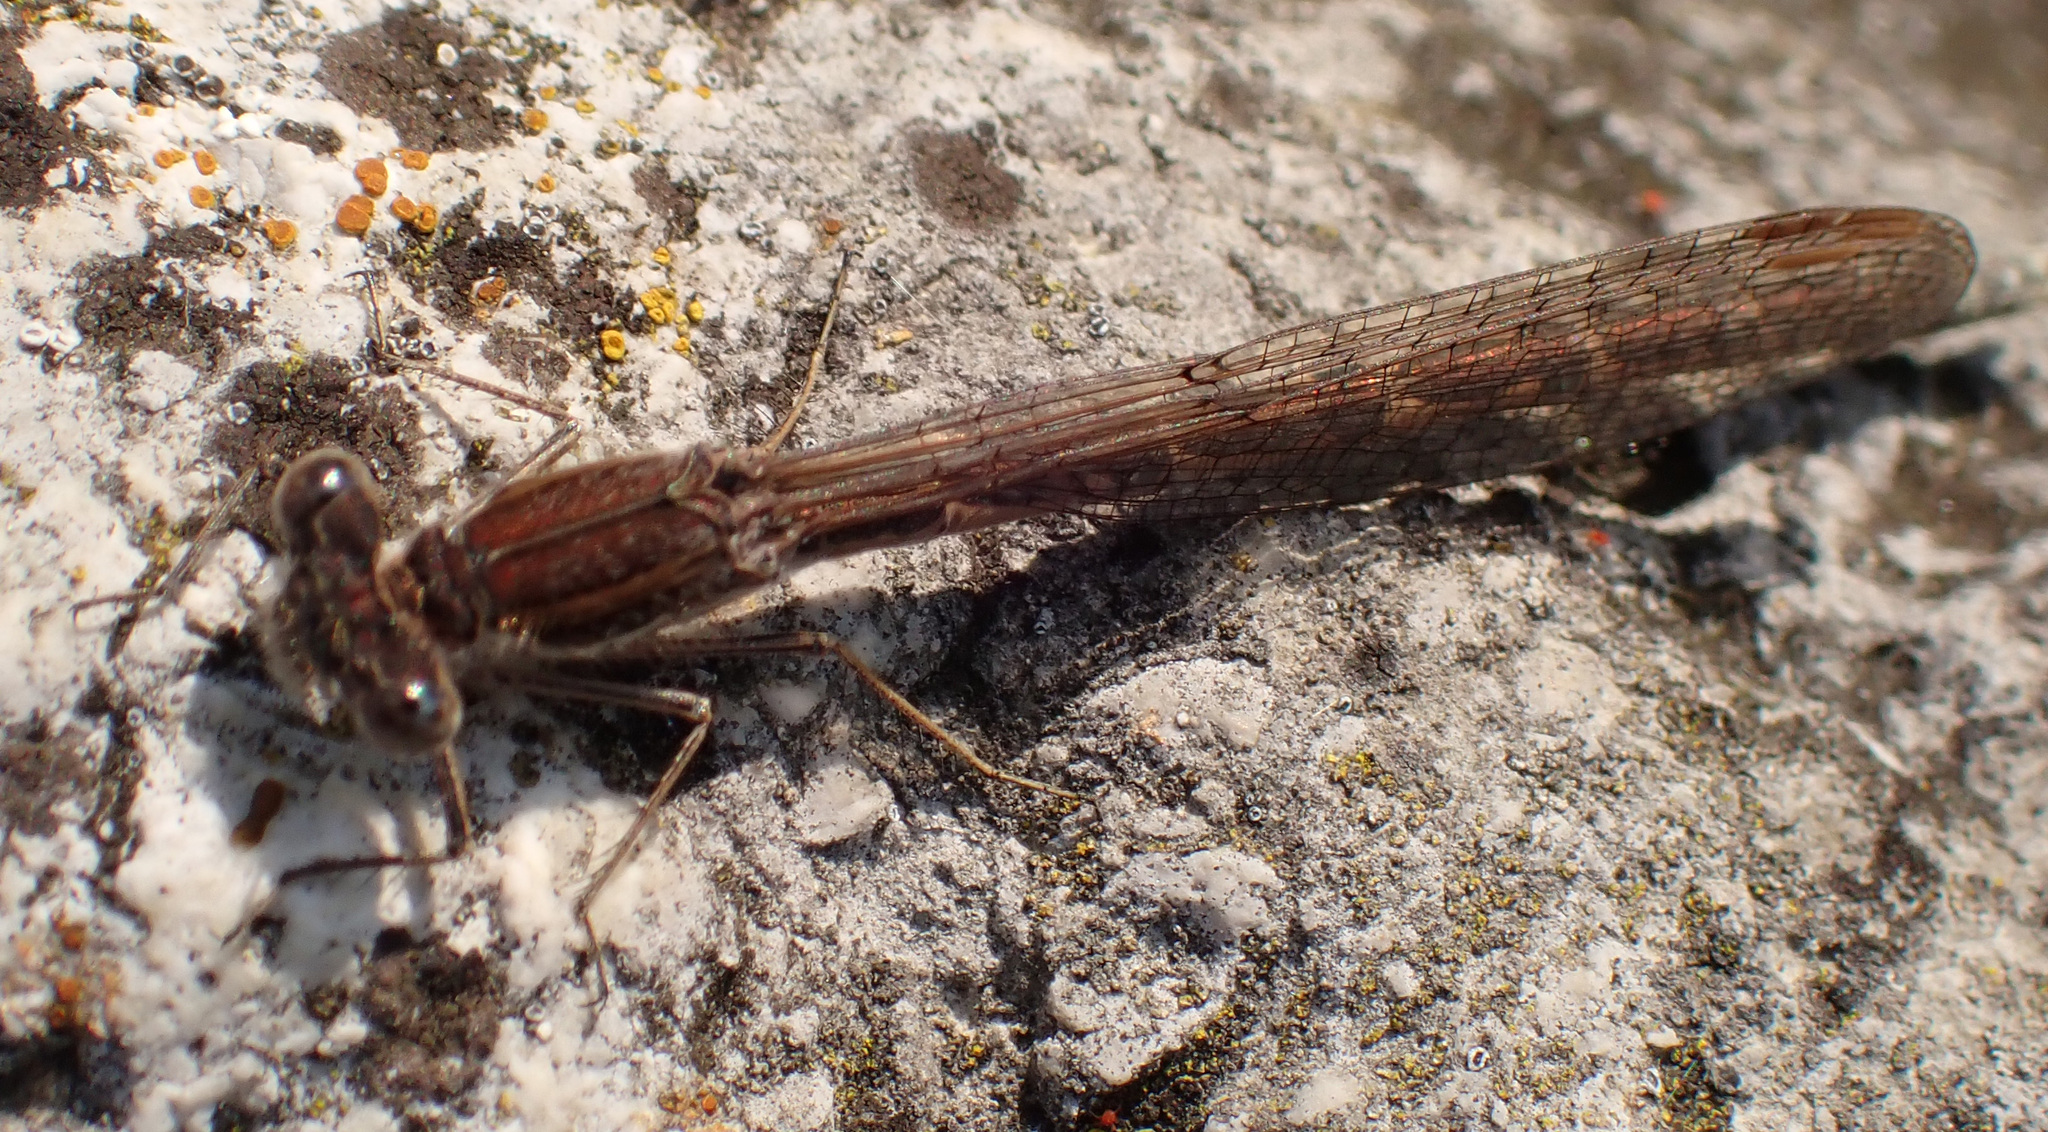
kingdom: Animalia
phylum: Arthropoda
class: Insecta
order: Odonata
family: Lestidae
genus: Sympecma
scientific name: Sympecma fusca
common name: Common winter damsel
